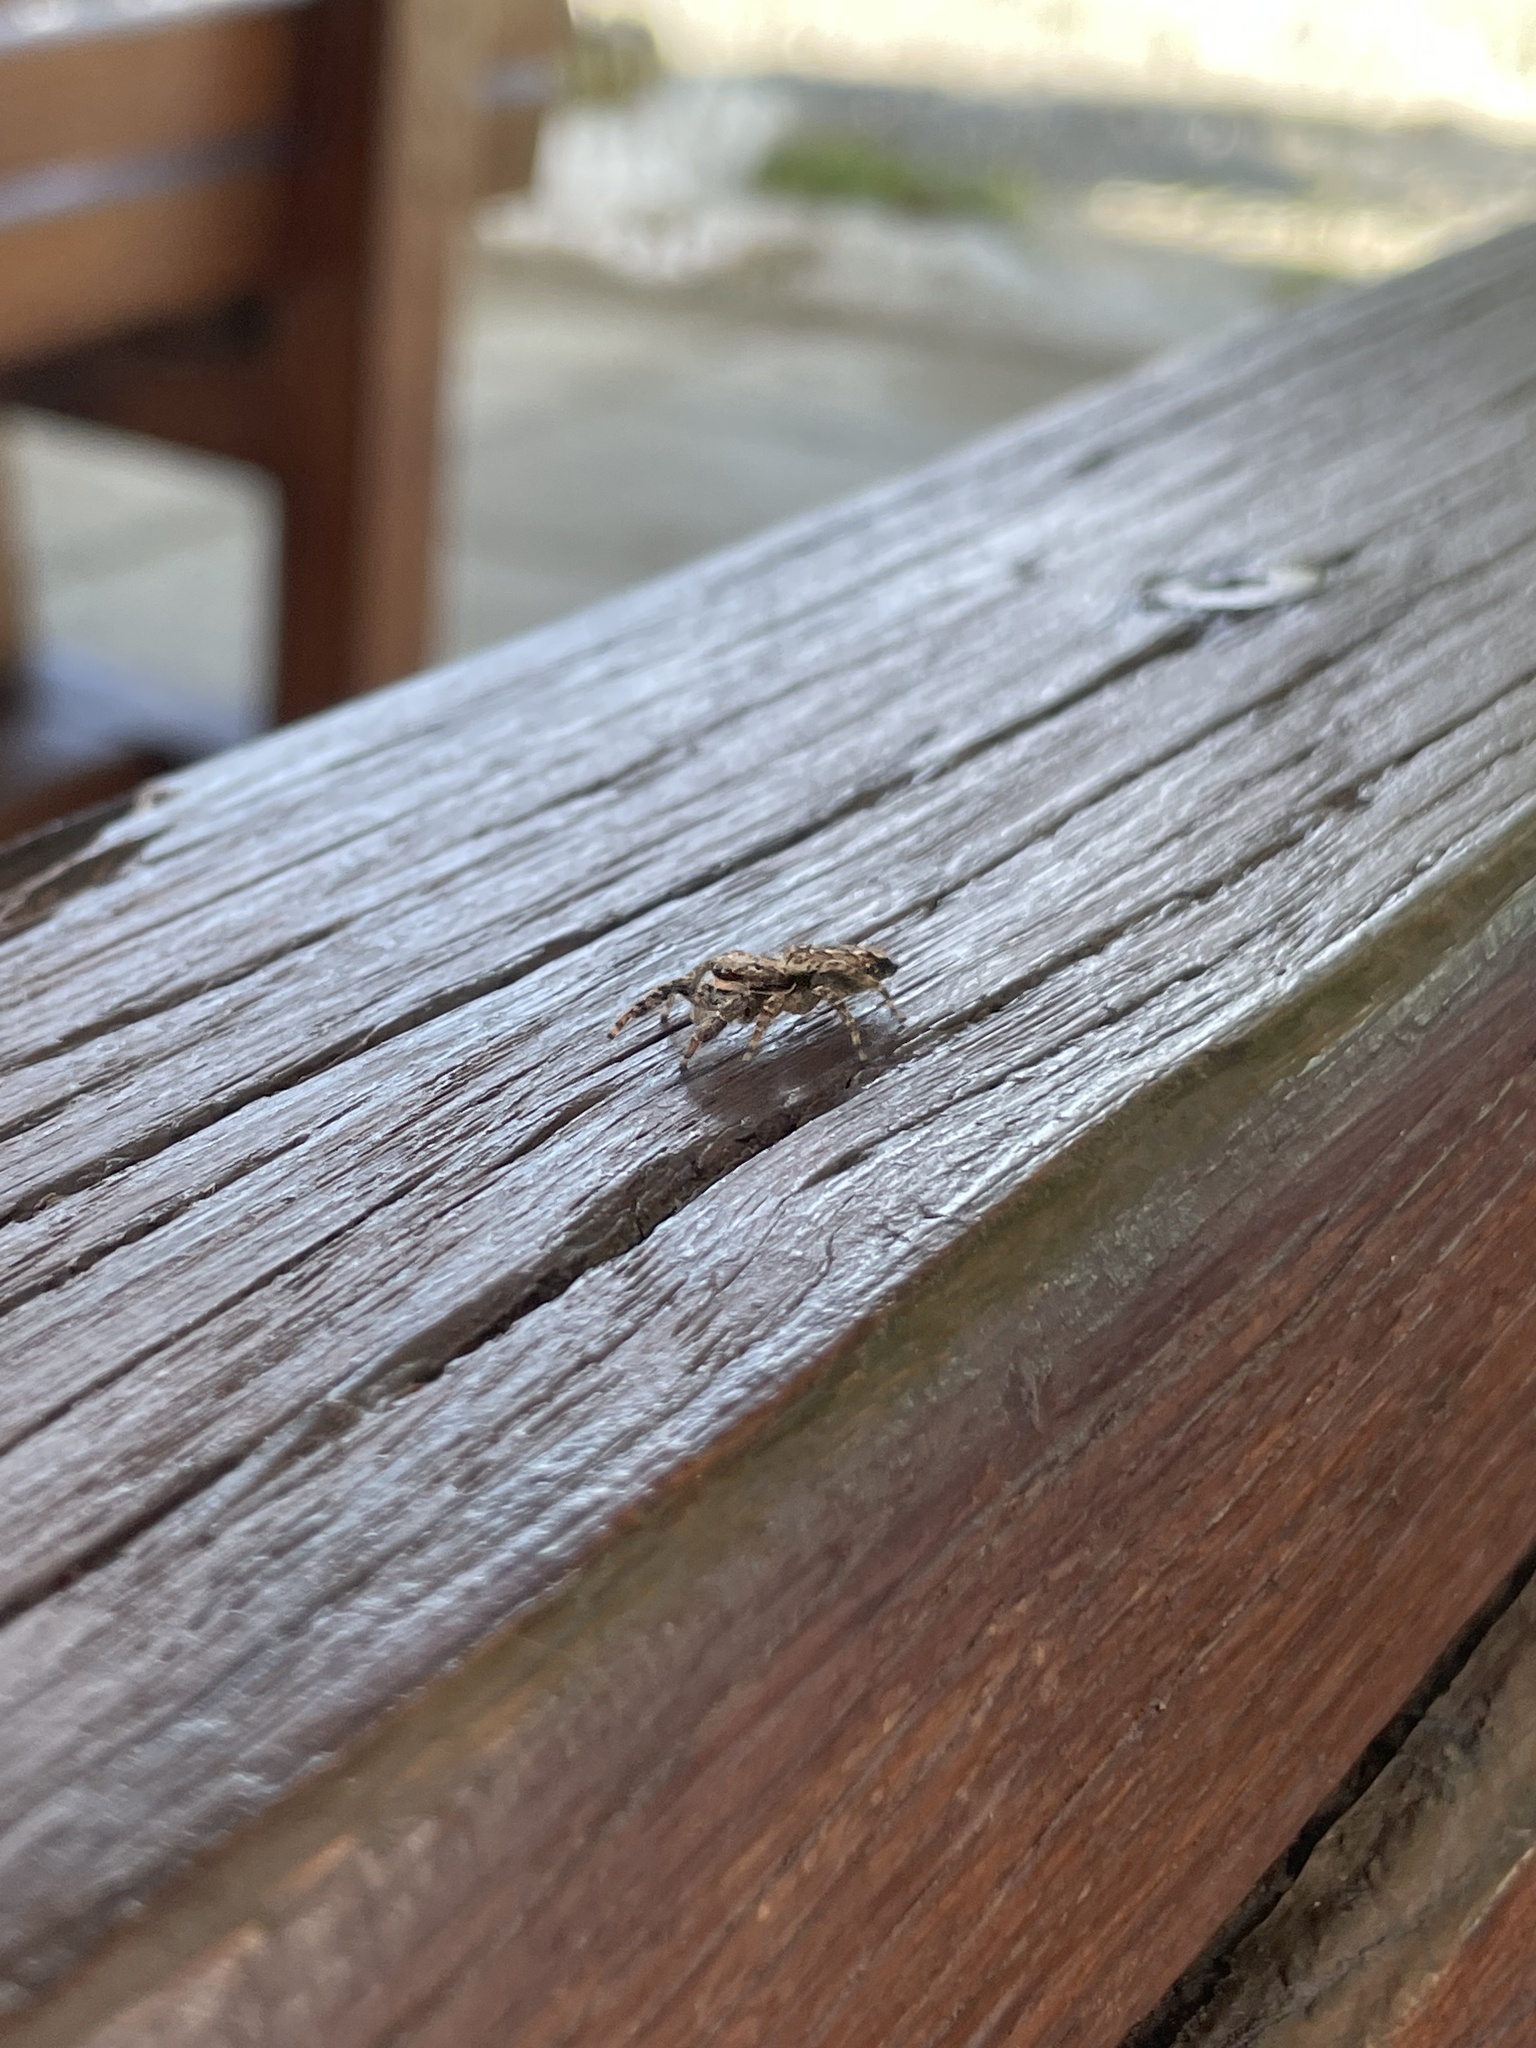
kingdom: Animalia
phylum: Arthropoda
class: Arachnida
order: Araneae
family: Salticidae
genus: Marpissa
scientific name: Marpissa muscosa
